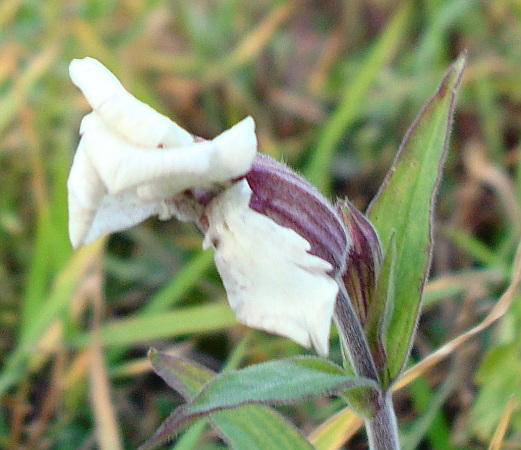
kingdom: Plantae
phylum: Tracheophyta
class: Magnoliopsida
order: Caryophyllales
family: Caryophyllaceae
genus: Silene
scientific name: Silene latifolia
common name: White campion
